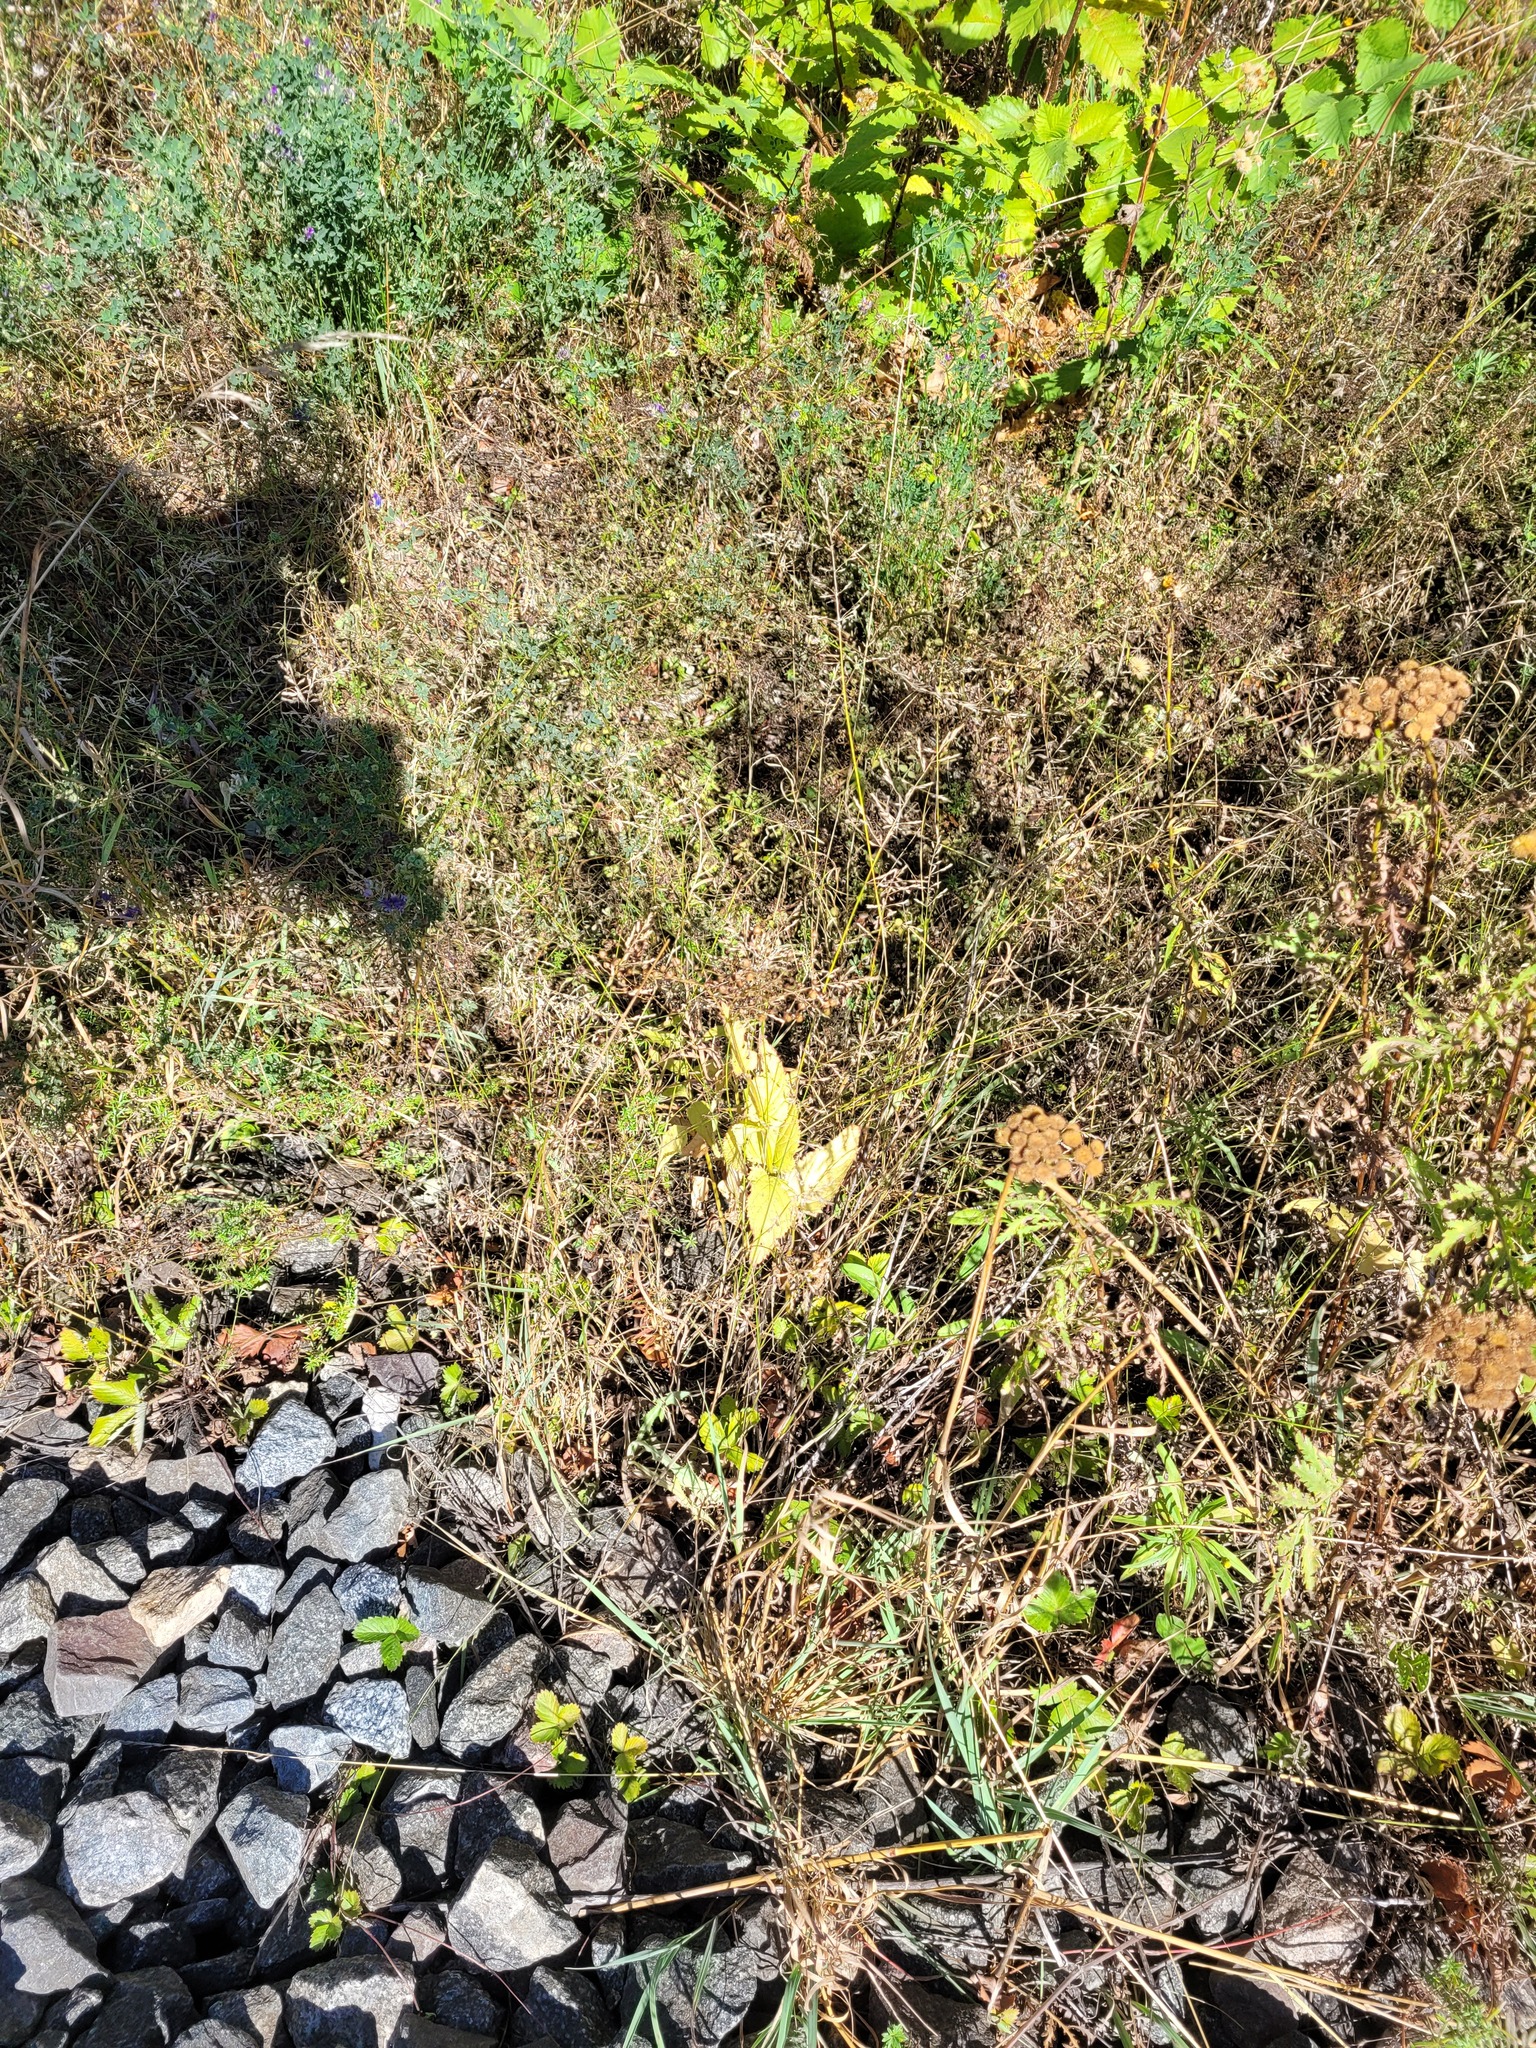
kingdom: Plantae
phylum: Tracheophyta
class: Magnoliopsida
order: Lamiales
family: Scrophulariaceae
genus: Scrophularia
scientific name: Scrophularia nodosa
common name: Common figwort
